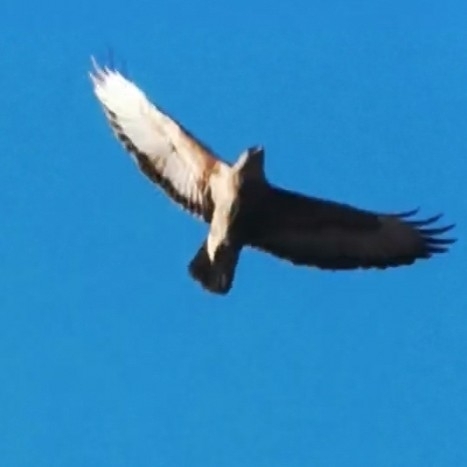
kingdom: Animalia
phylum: Chordata
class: Aves
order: Accipitriformes
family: Accipitridae
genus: Buteo
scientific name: Buteo buteo
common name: Common buzzard
